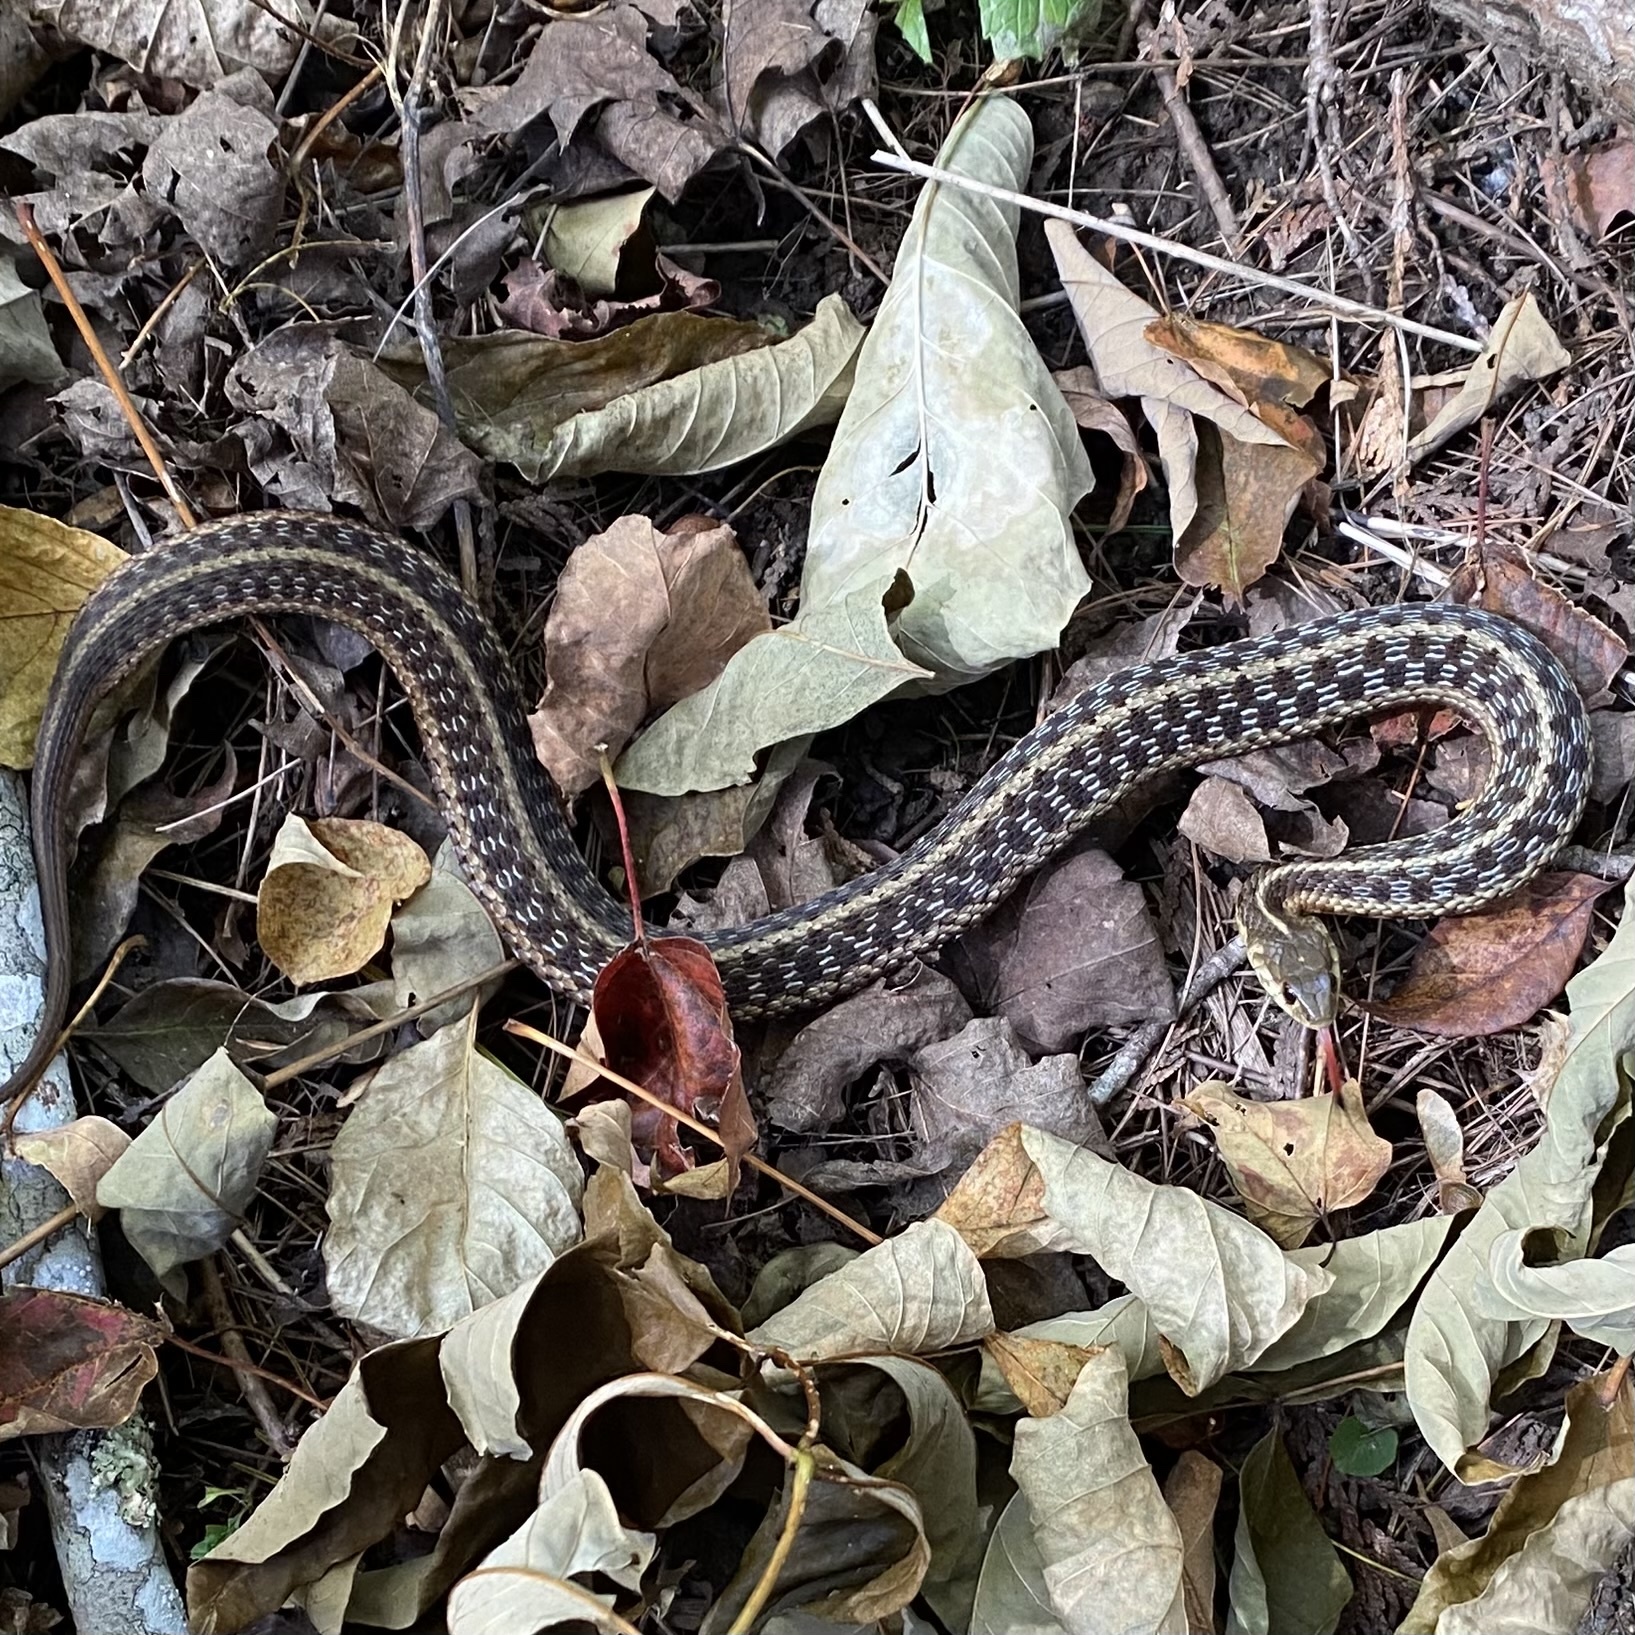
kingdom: Animalia
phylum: Chordata
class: Squamata
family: Colubridae
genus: Thamnophis
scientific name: Thamnophis sirtalis
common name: Common garter snake
